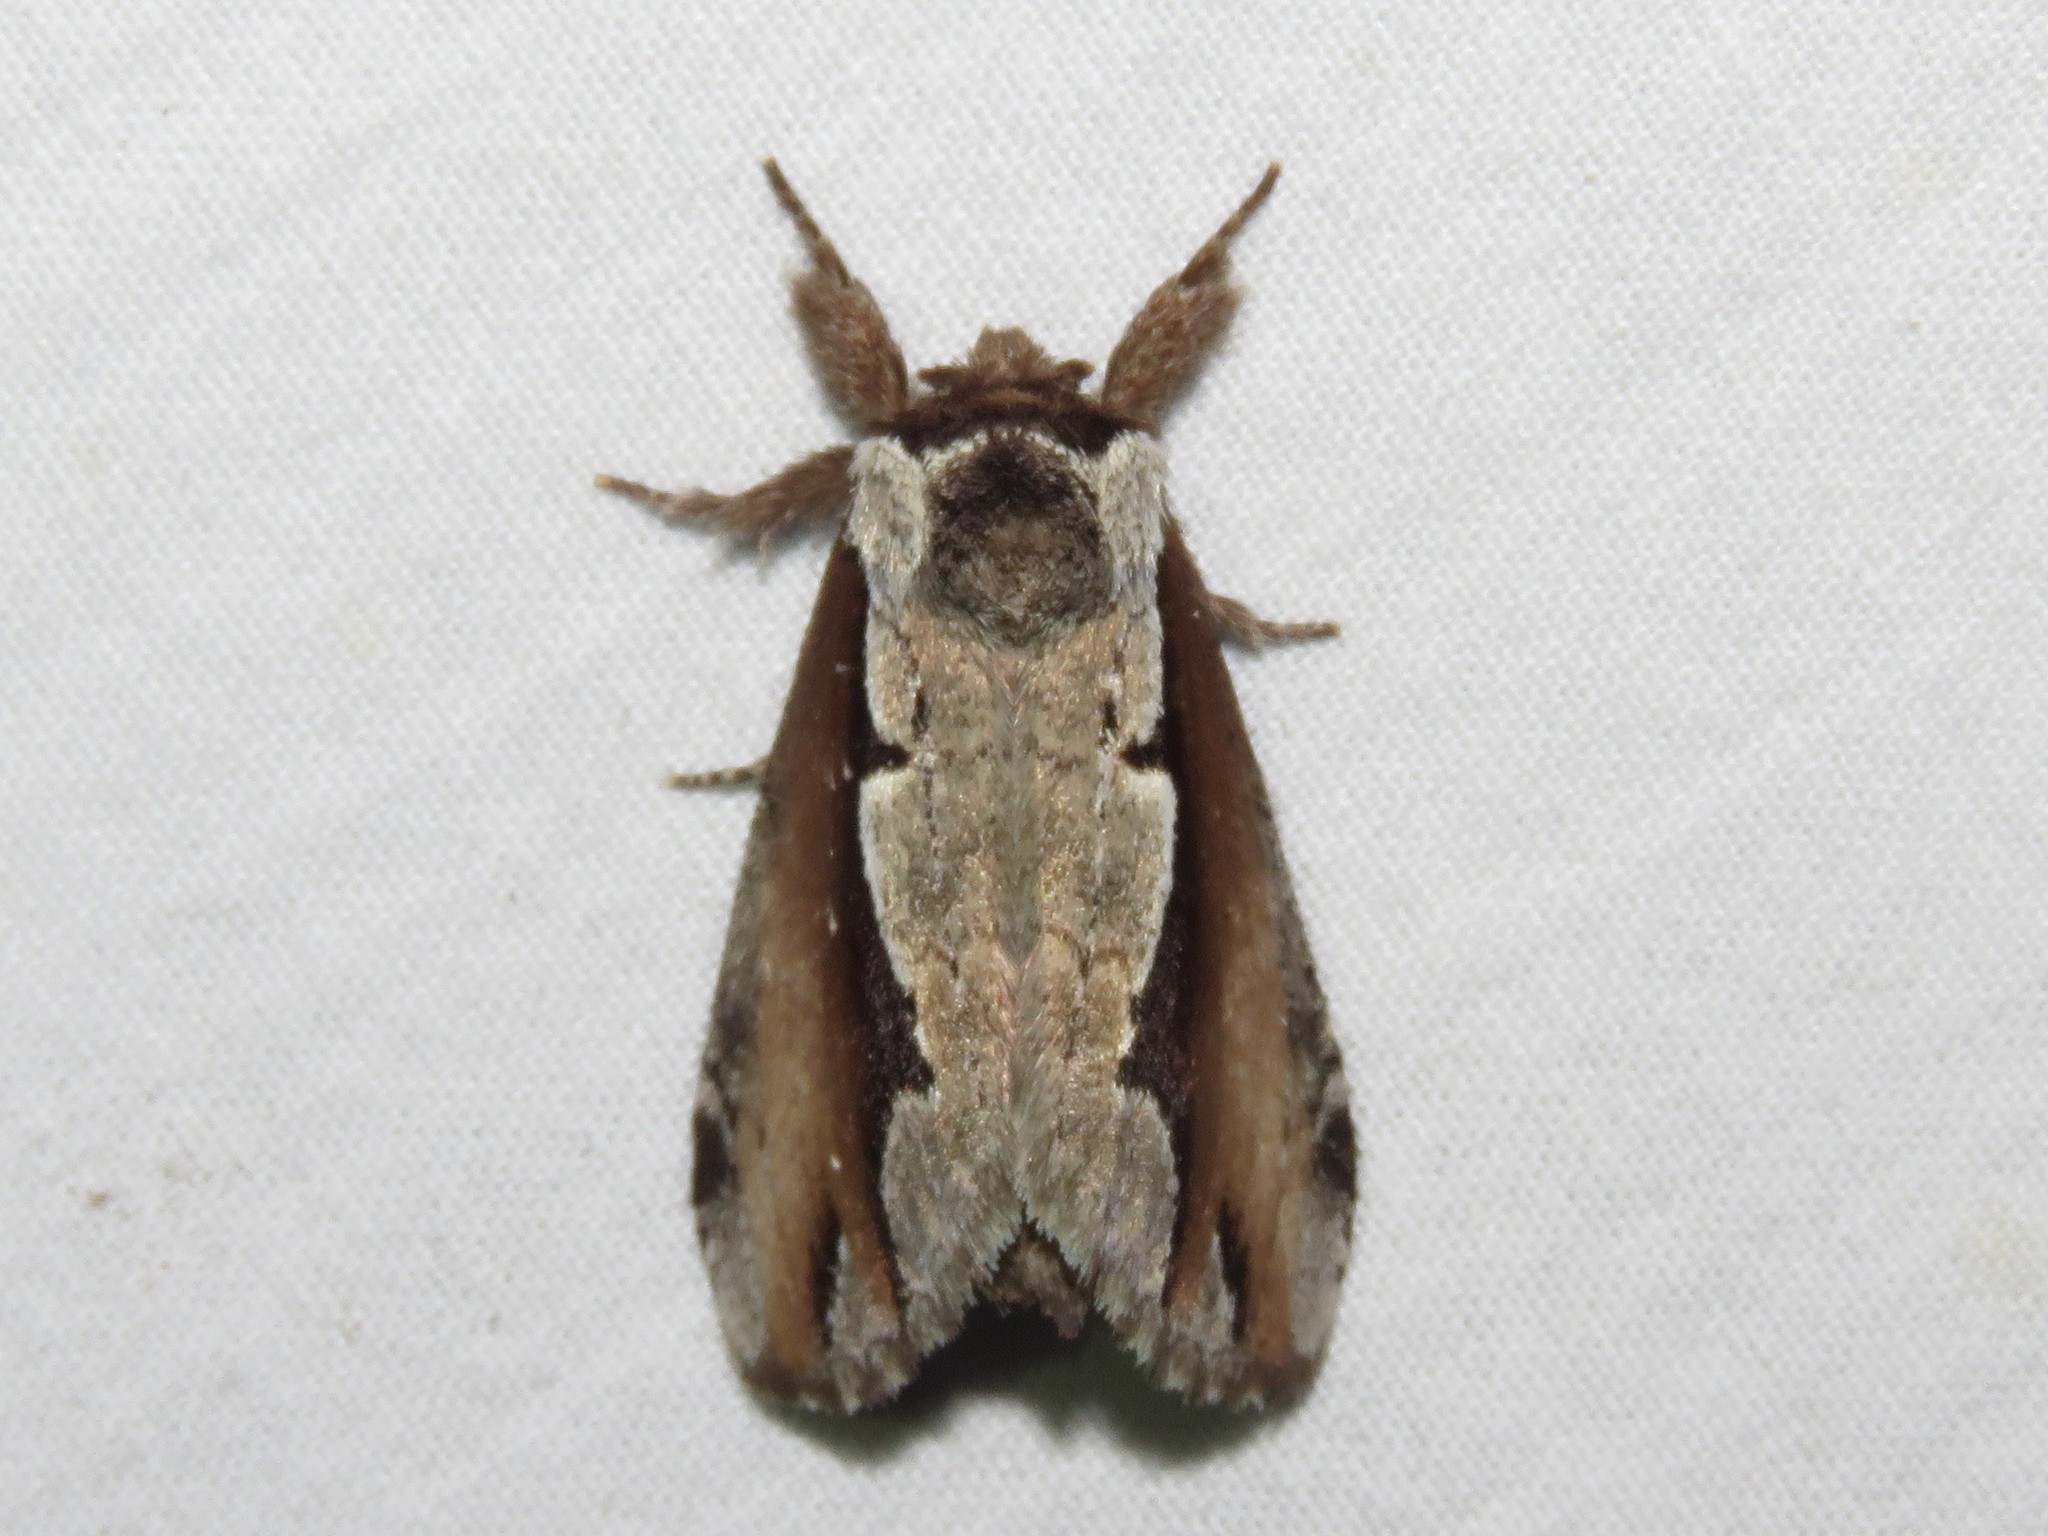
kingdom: Animalia
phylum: Arthropoda
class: Insecta
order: Lepidoptera
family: Notodontidae
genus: Nerice
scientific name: Nerice bidentata
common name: Double-toothed prominent
